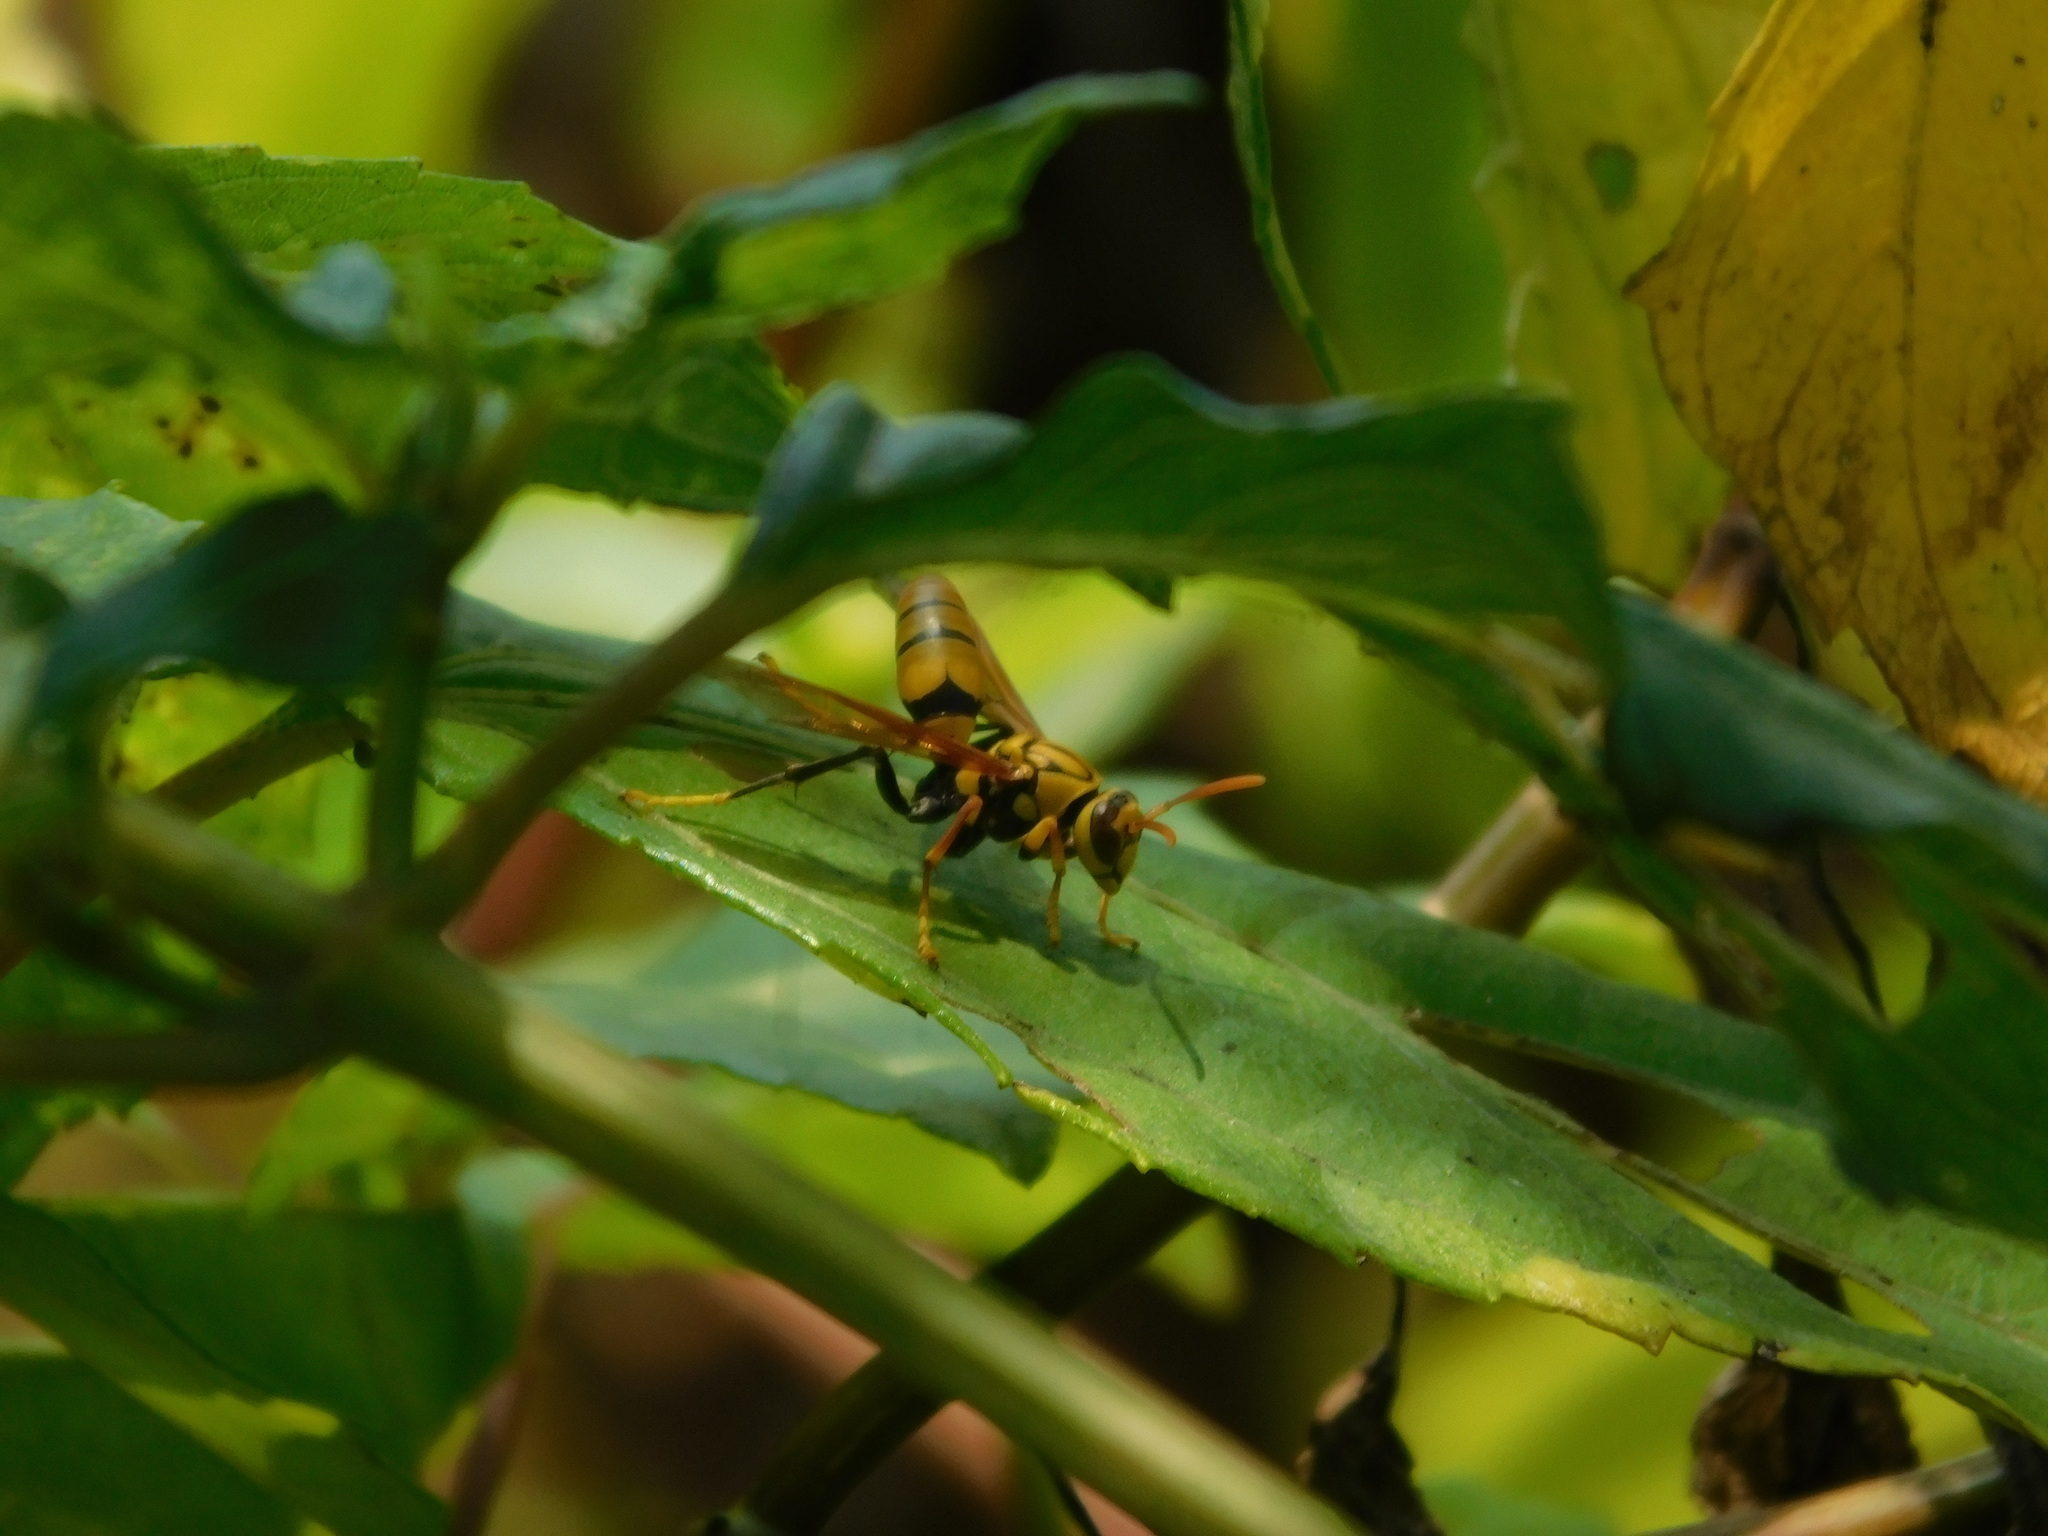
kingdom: Animalia
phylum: Arthropoda
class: Insecta
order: Hymenoptera
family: Eumenidae
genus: Polistes
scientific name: Polistes diabolicus
